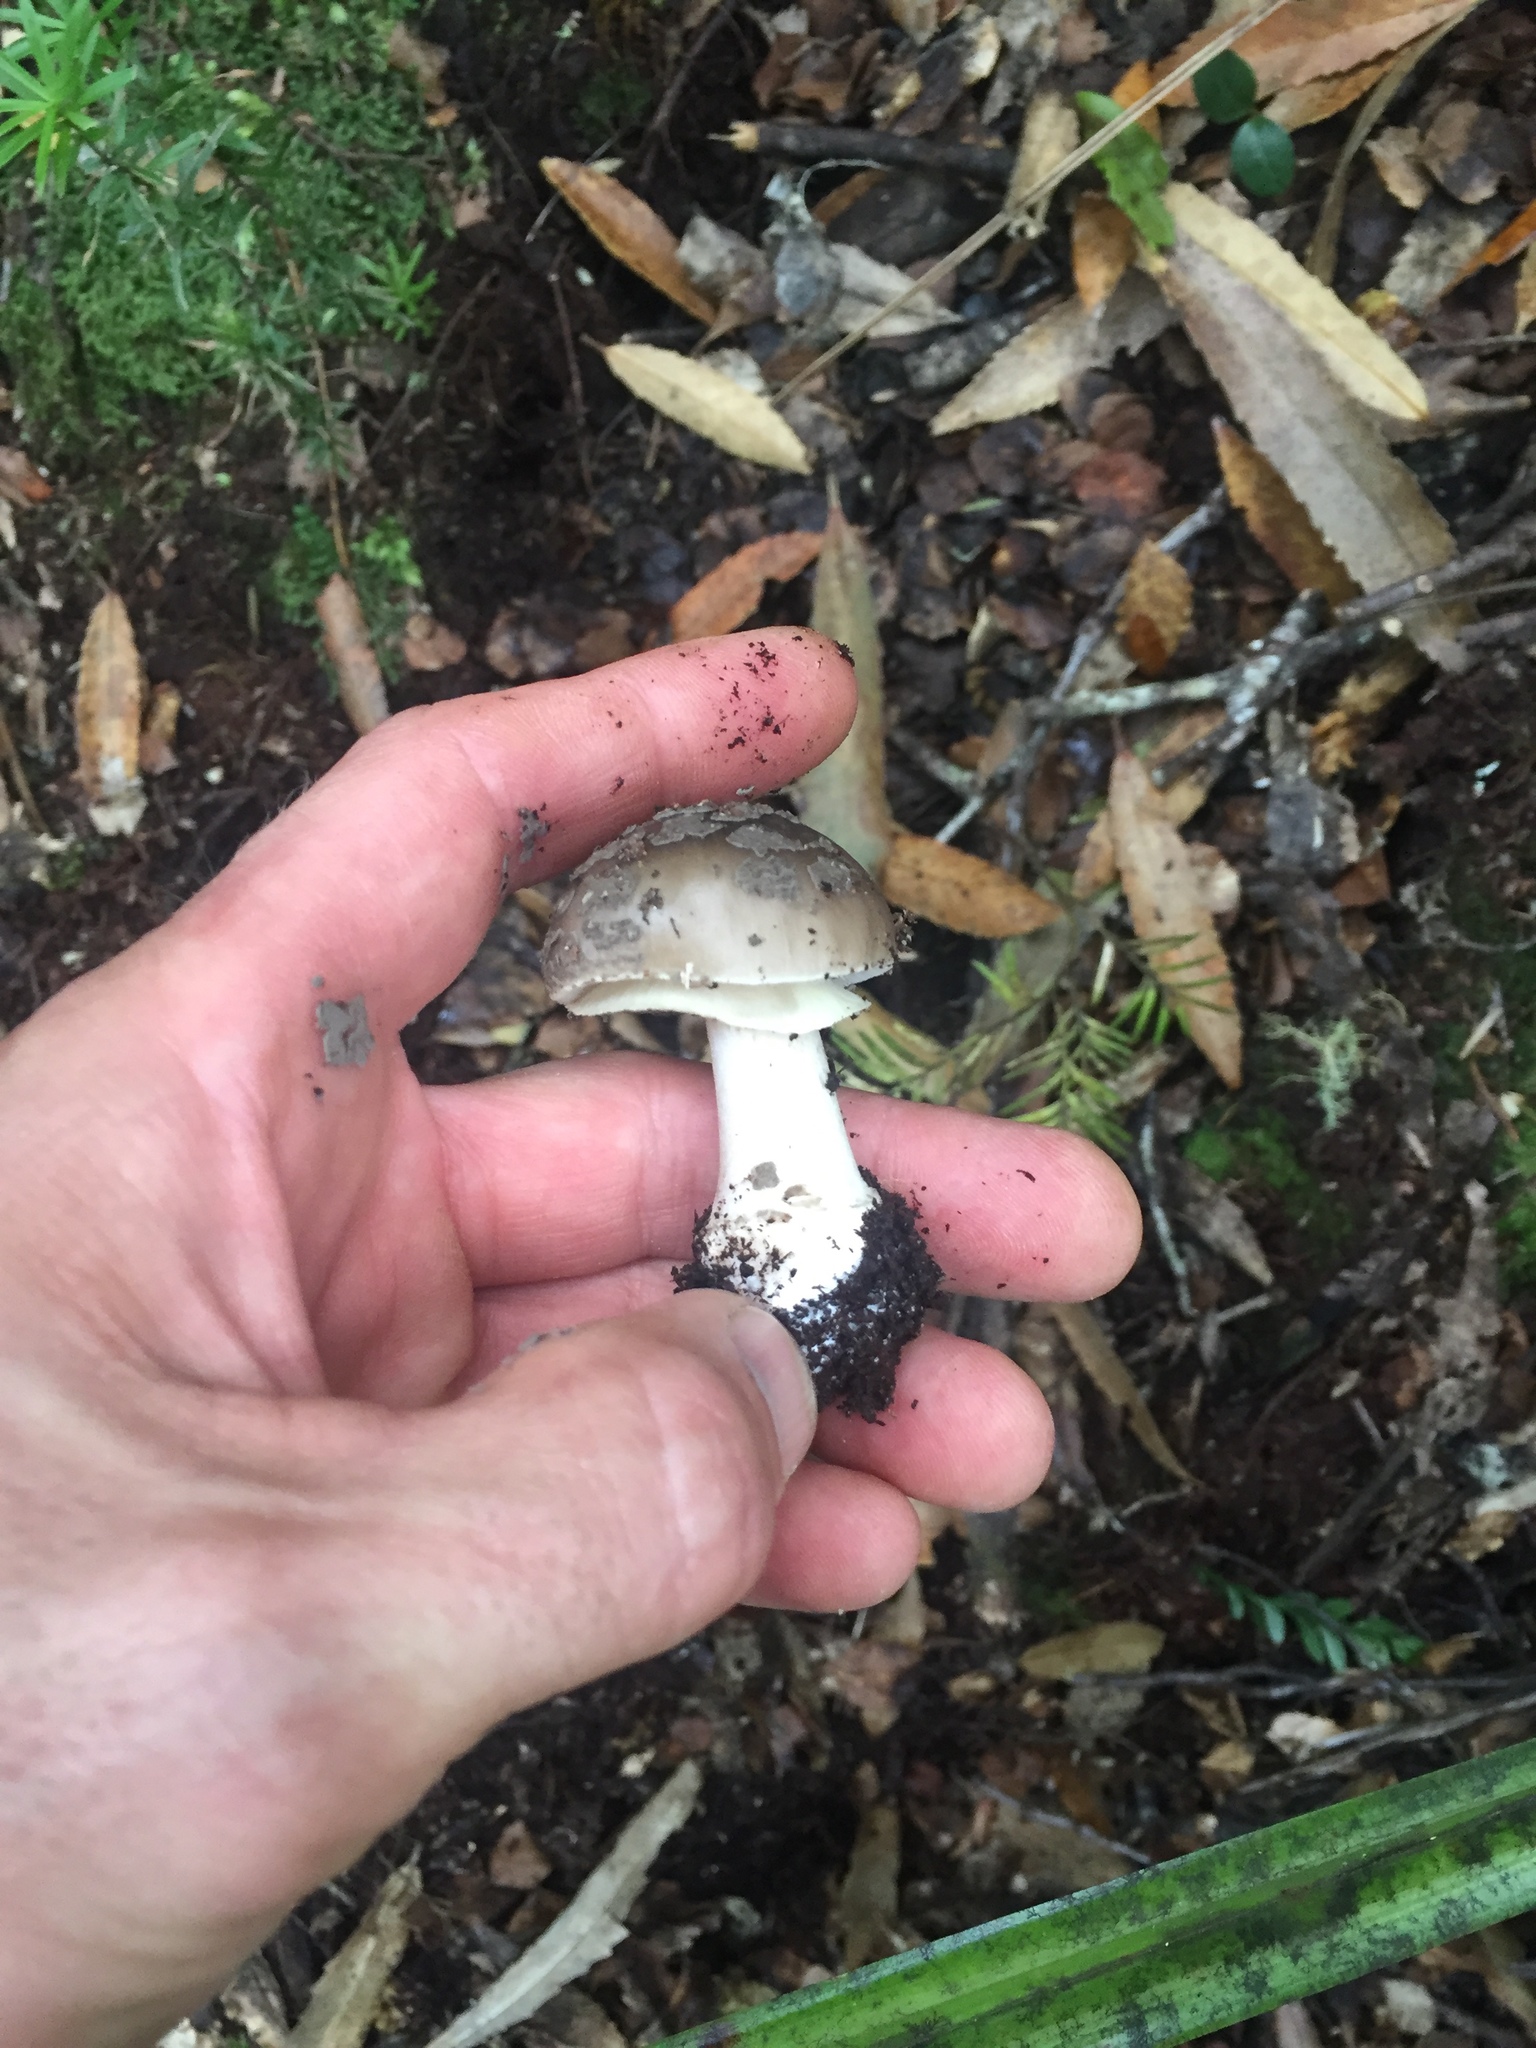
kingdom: Fungi
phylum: Basidiomycota
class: Agaricomycetes
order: Agaricales
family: Amanitaceae
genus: Amanita
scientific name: Amanita nothofagi
